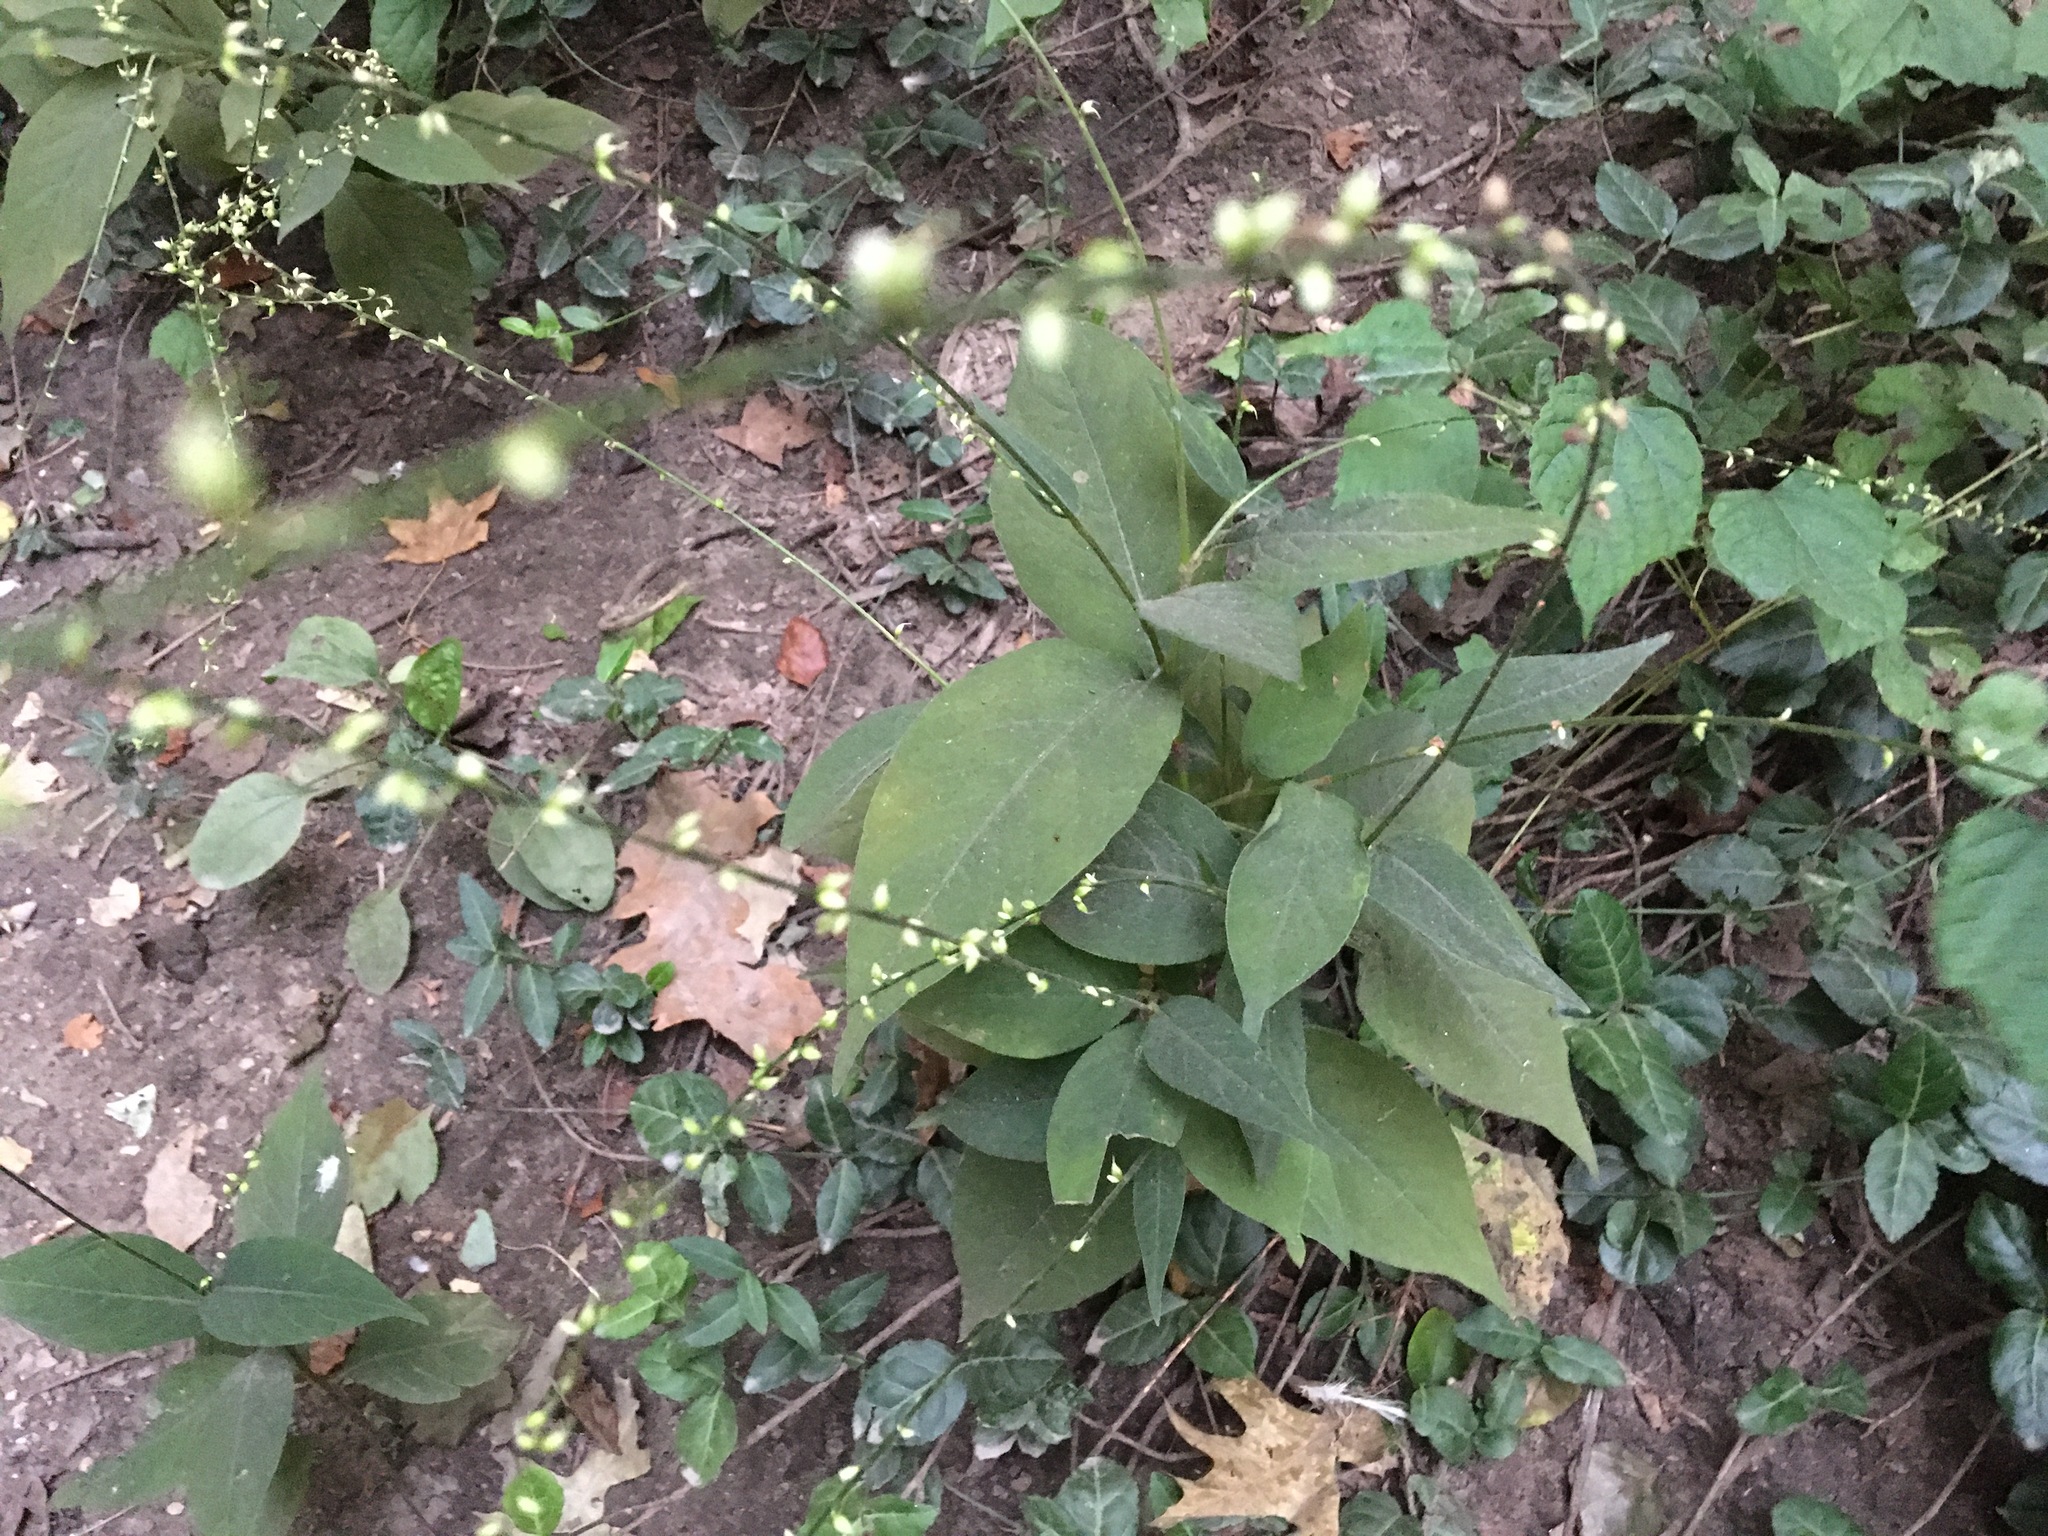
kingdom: Plantae
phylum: Tracheophyta
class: Magnoliopsida
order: Caryophyllales
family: Polygonaceae
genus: Persicaria
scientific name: Persicaria virginiana
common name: Jumpseed
